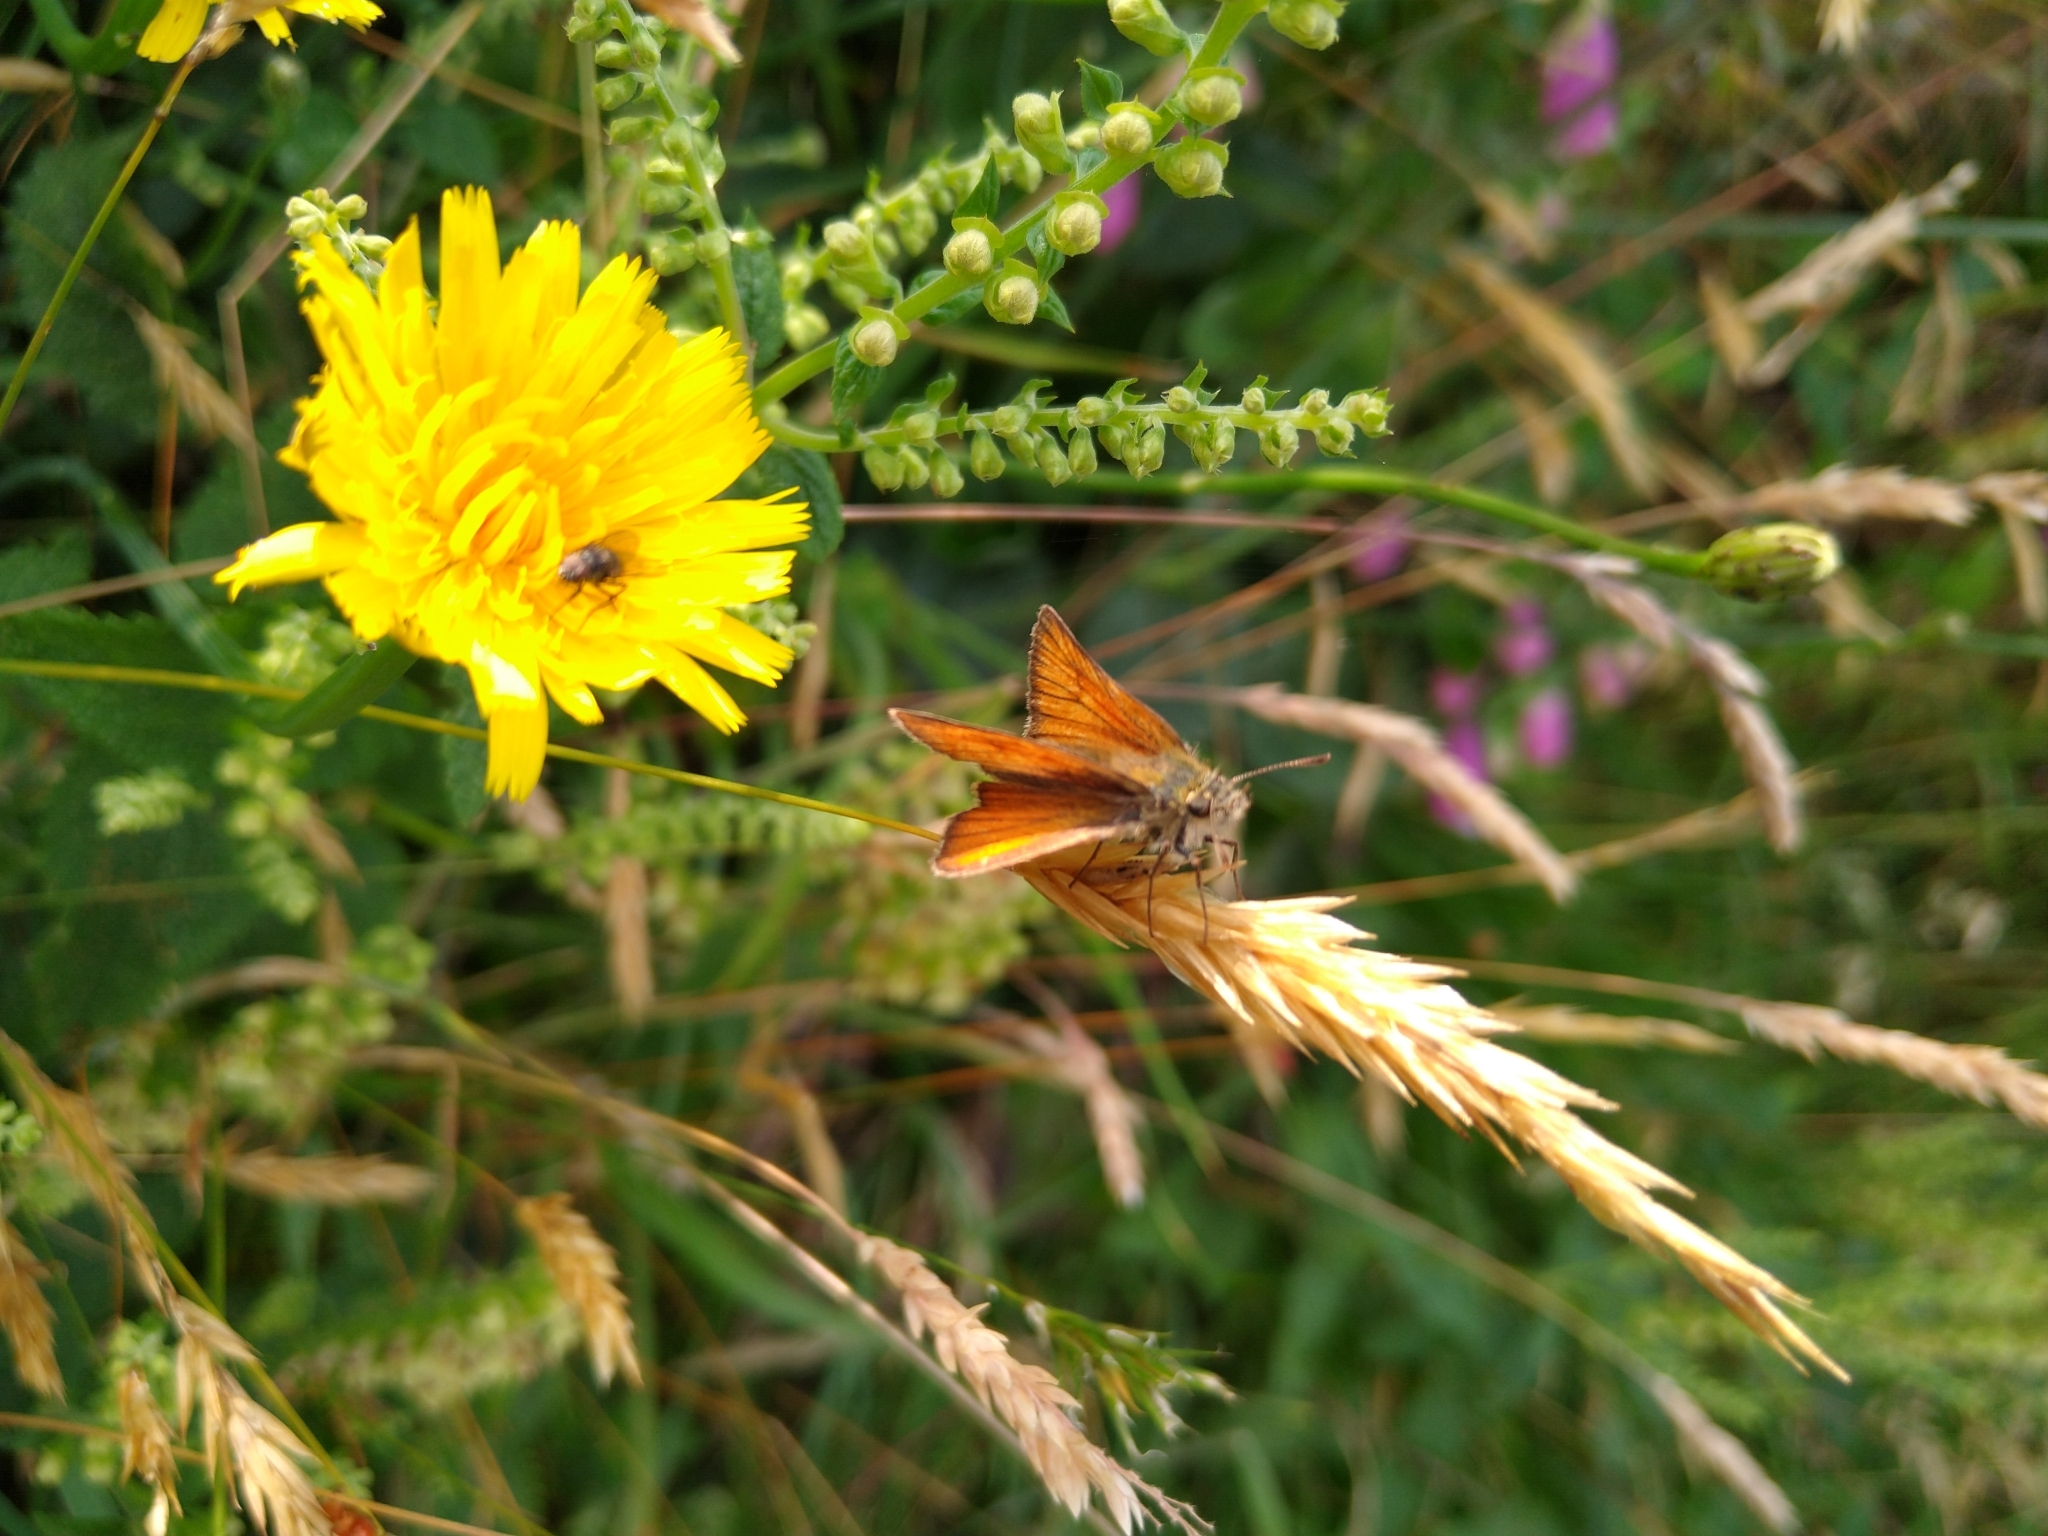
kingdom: Animalia
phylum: Arthropoda
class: Insecta
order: Lepidoptera
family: Hesperiidae
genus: Thymelicus
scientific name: Thymelicus sylvestris
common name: Small skipper
